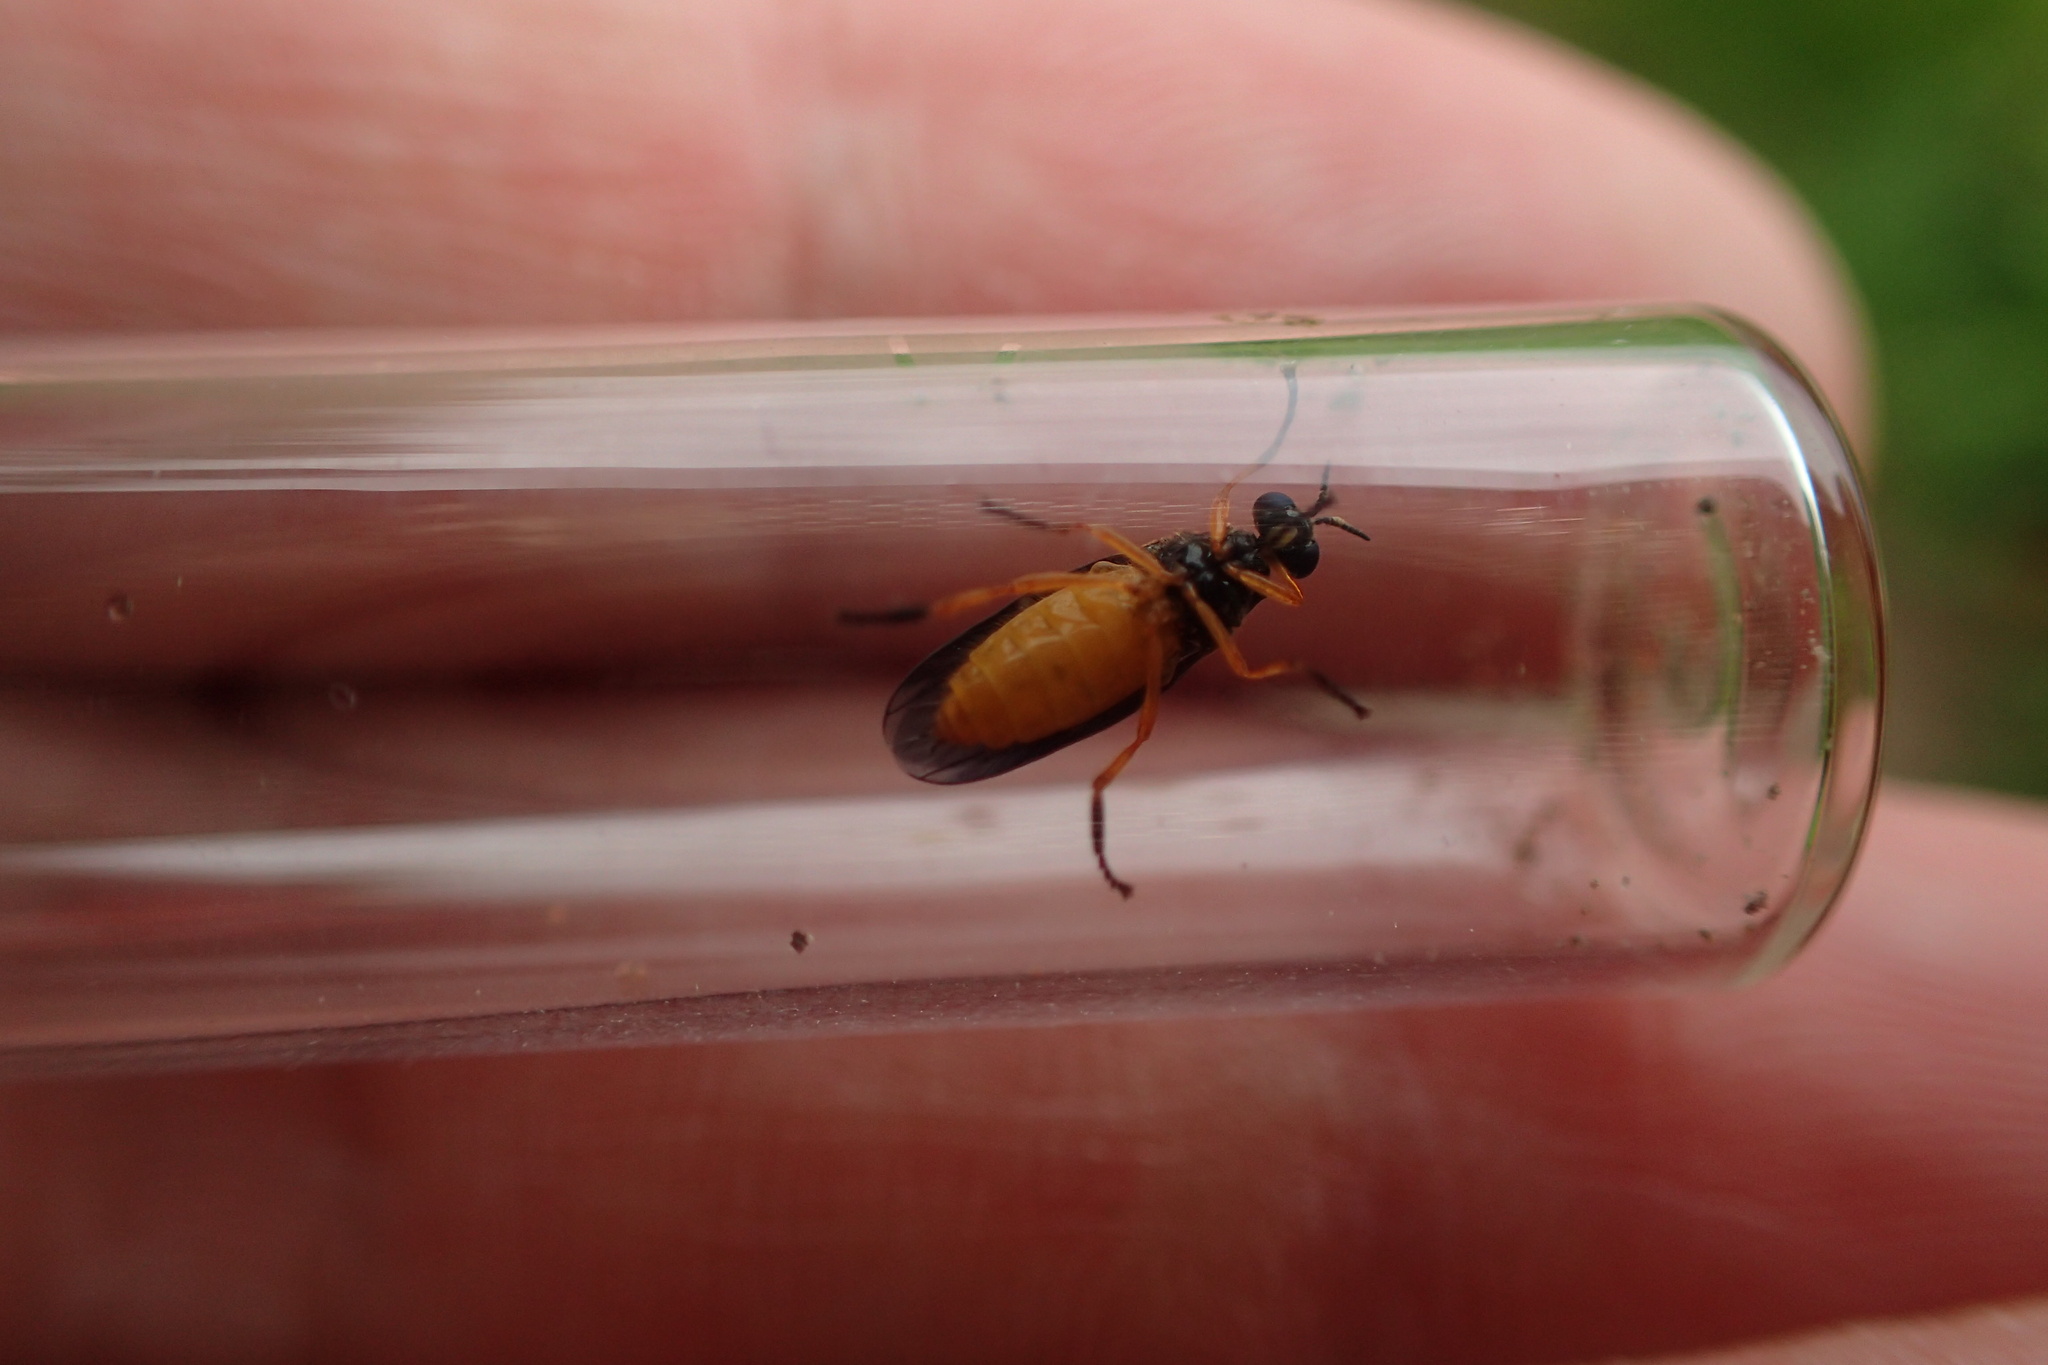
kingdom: Animalia
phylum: Arthropoda
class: Insecta
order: Diptera
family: Stratiomyidae
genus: Beris
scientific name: Beris clavipes
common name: Scarce orange legionnaire
